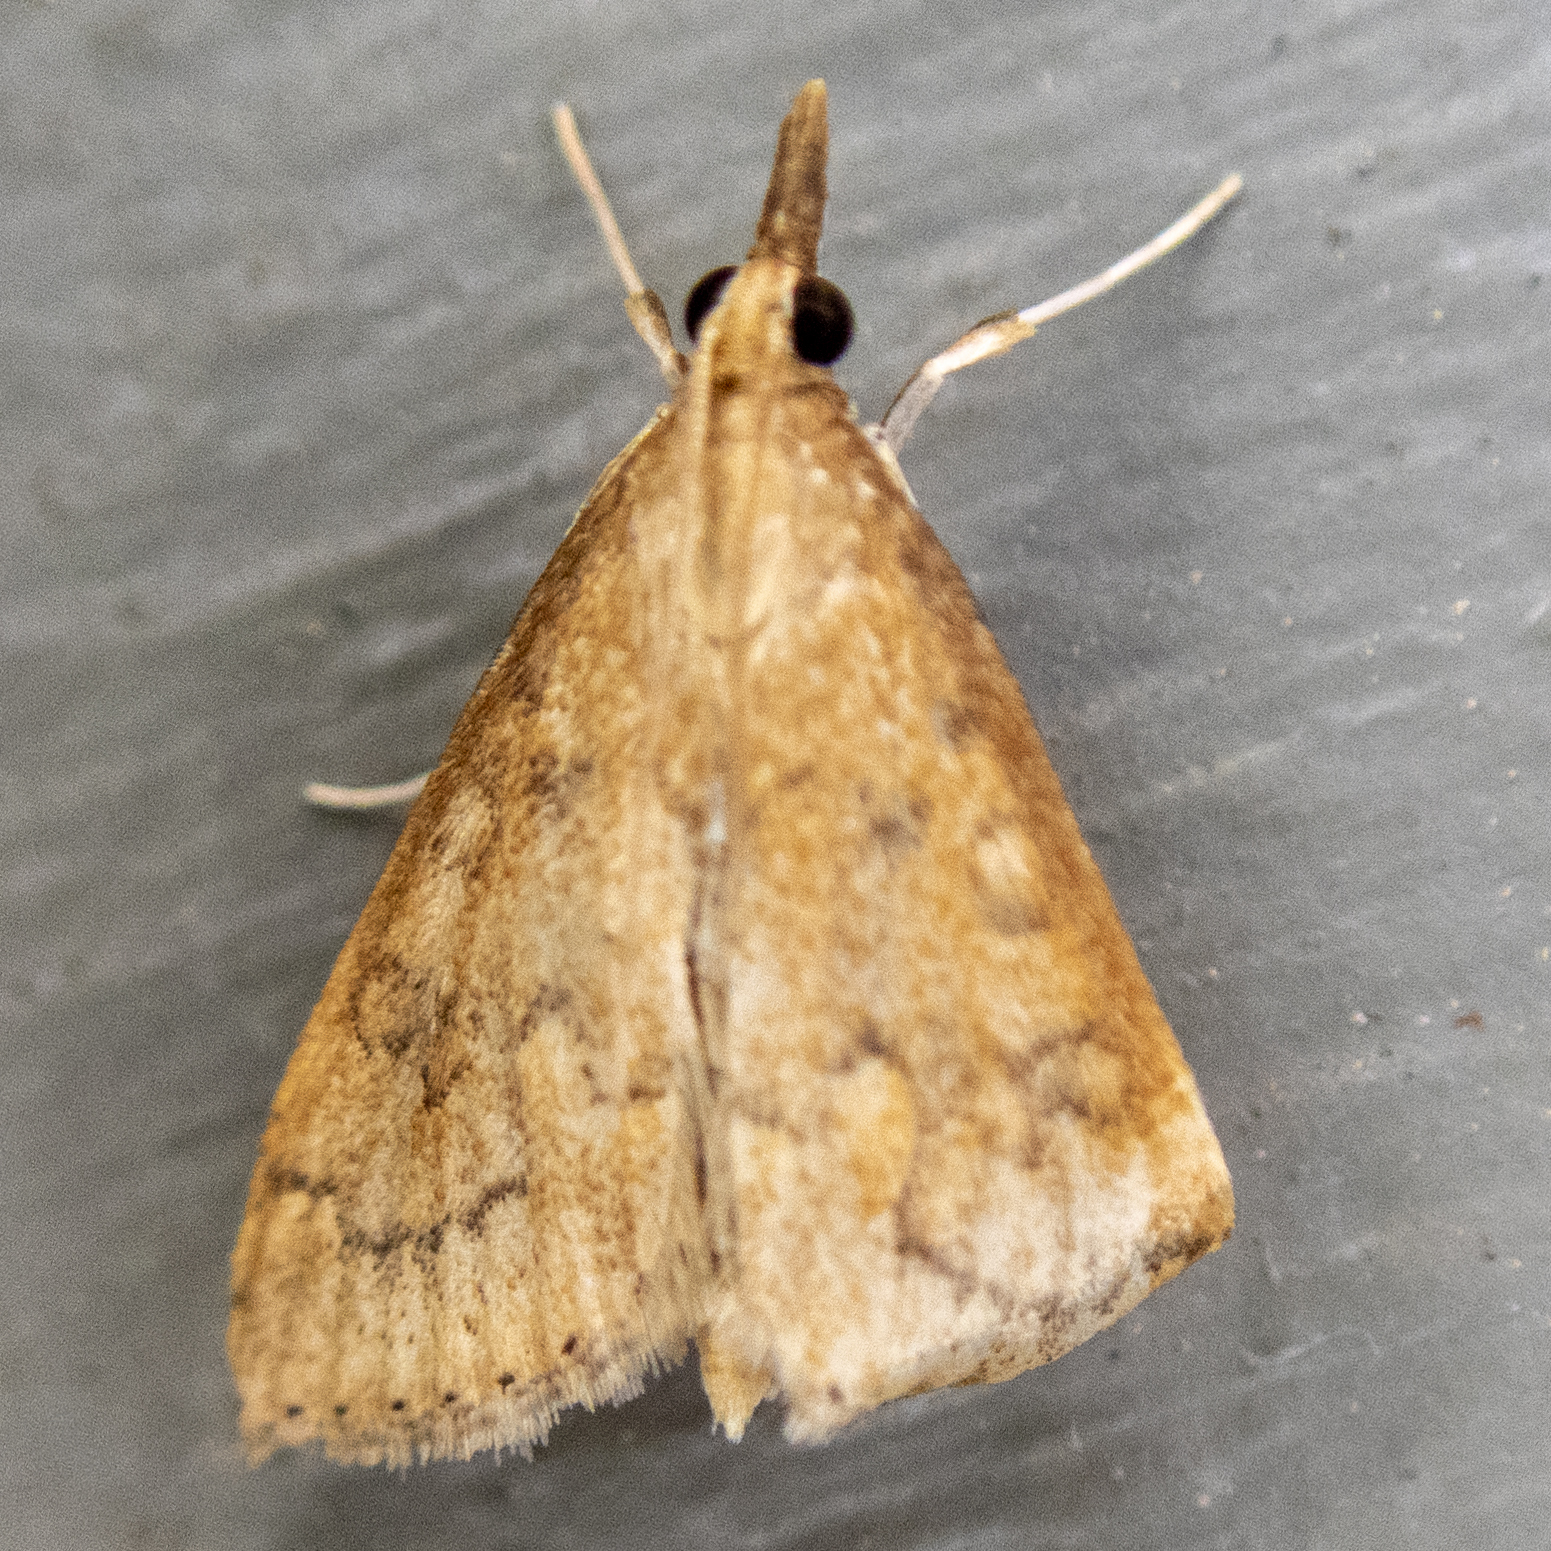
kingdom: Animalia
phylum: Arthropoda
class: Insecta
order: Lepidoptera
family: Crambidae
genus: Udea
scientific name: Udea rubigalis
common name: Celery leaftier moth
